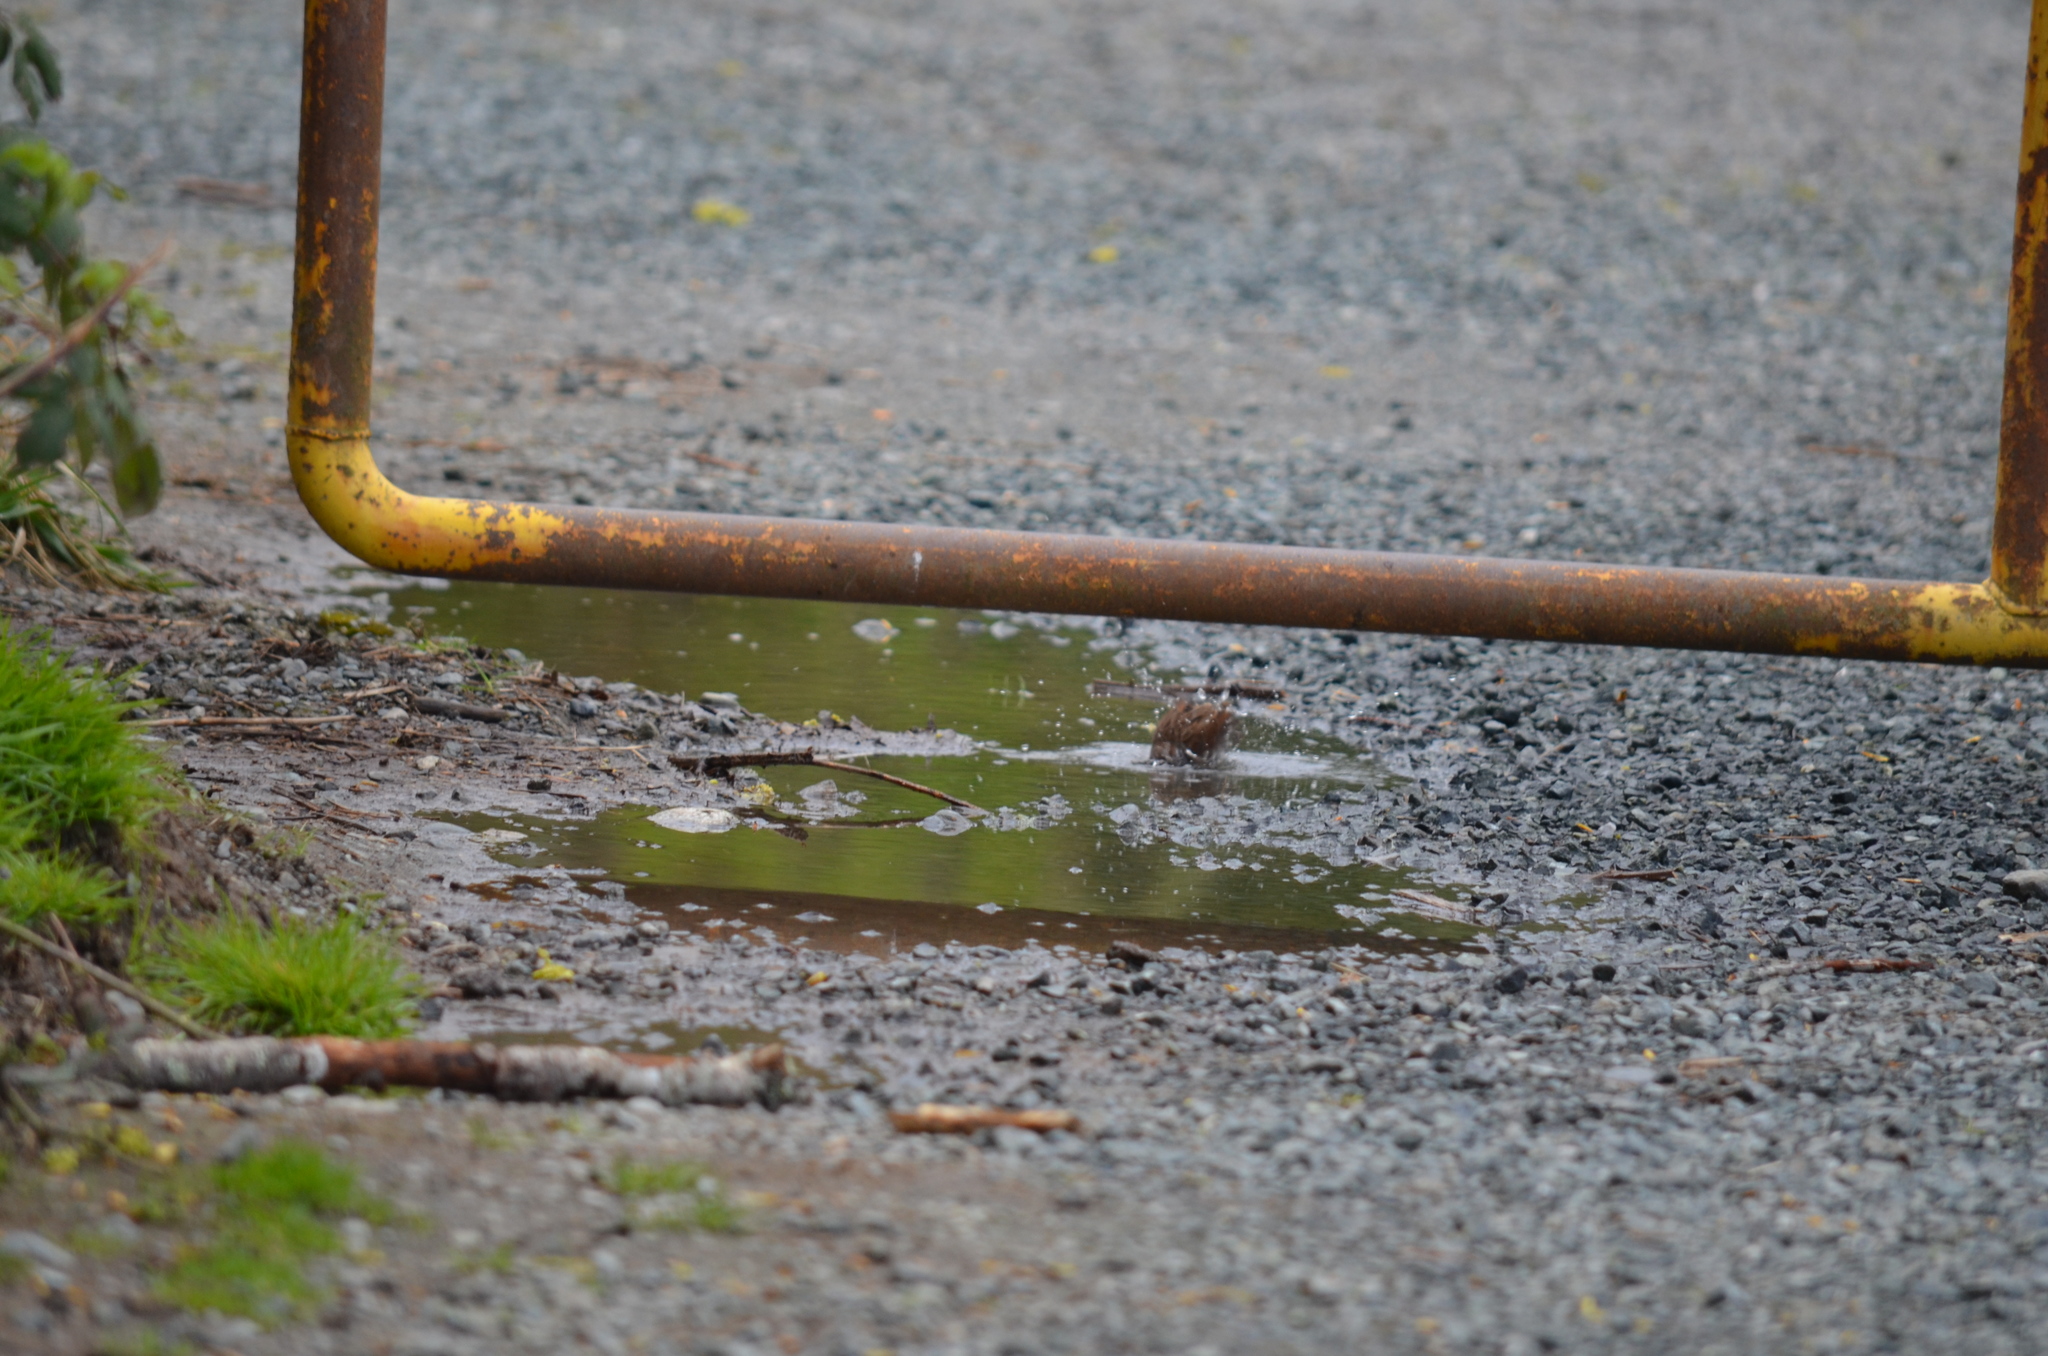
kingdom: Animalia
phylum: Chordata
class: Aves
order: Passeriformes
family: Passerellidae
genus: Melospiza
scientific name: Melospiza melodia
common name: Song sparrow
